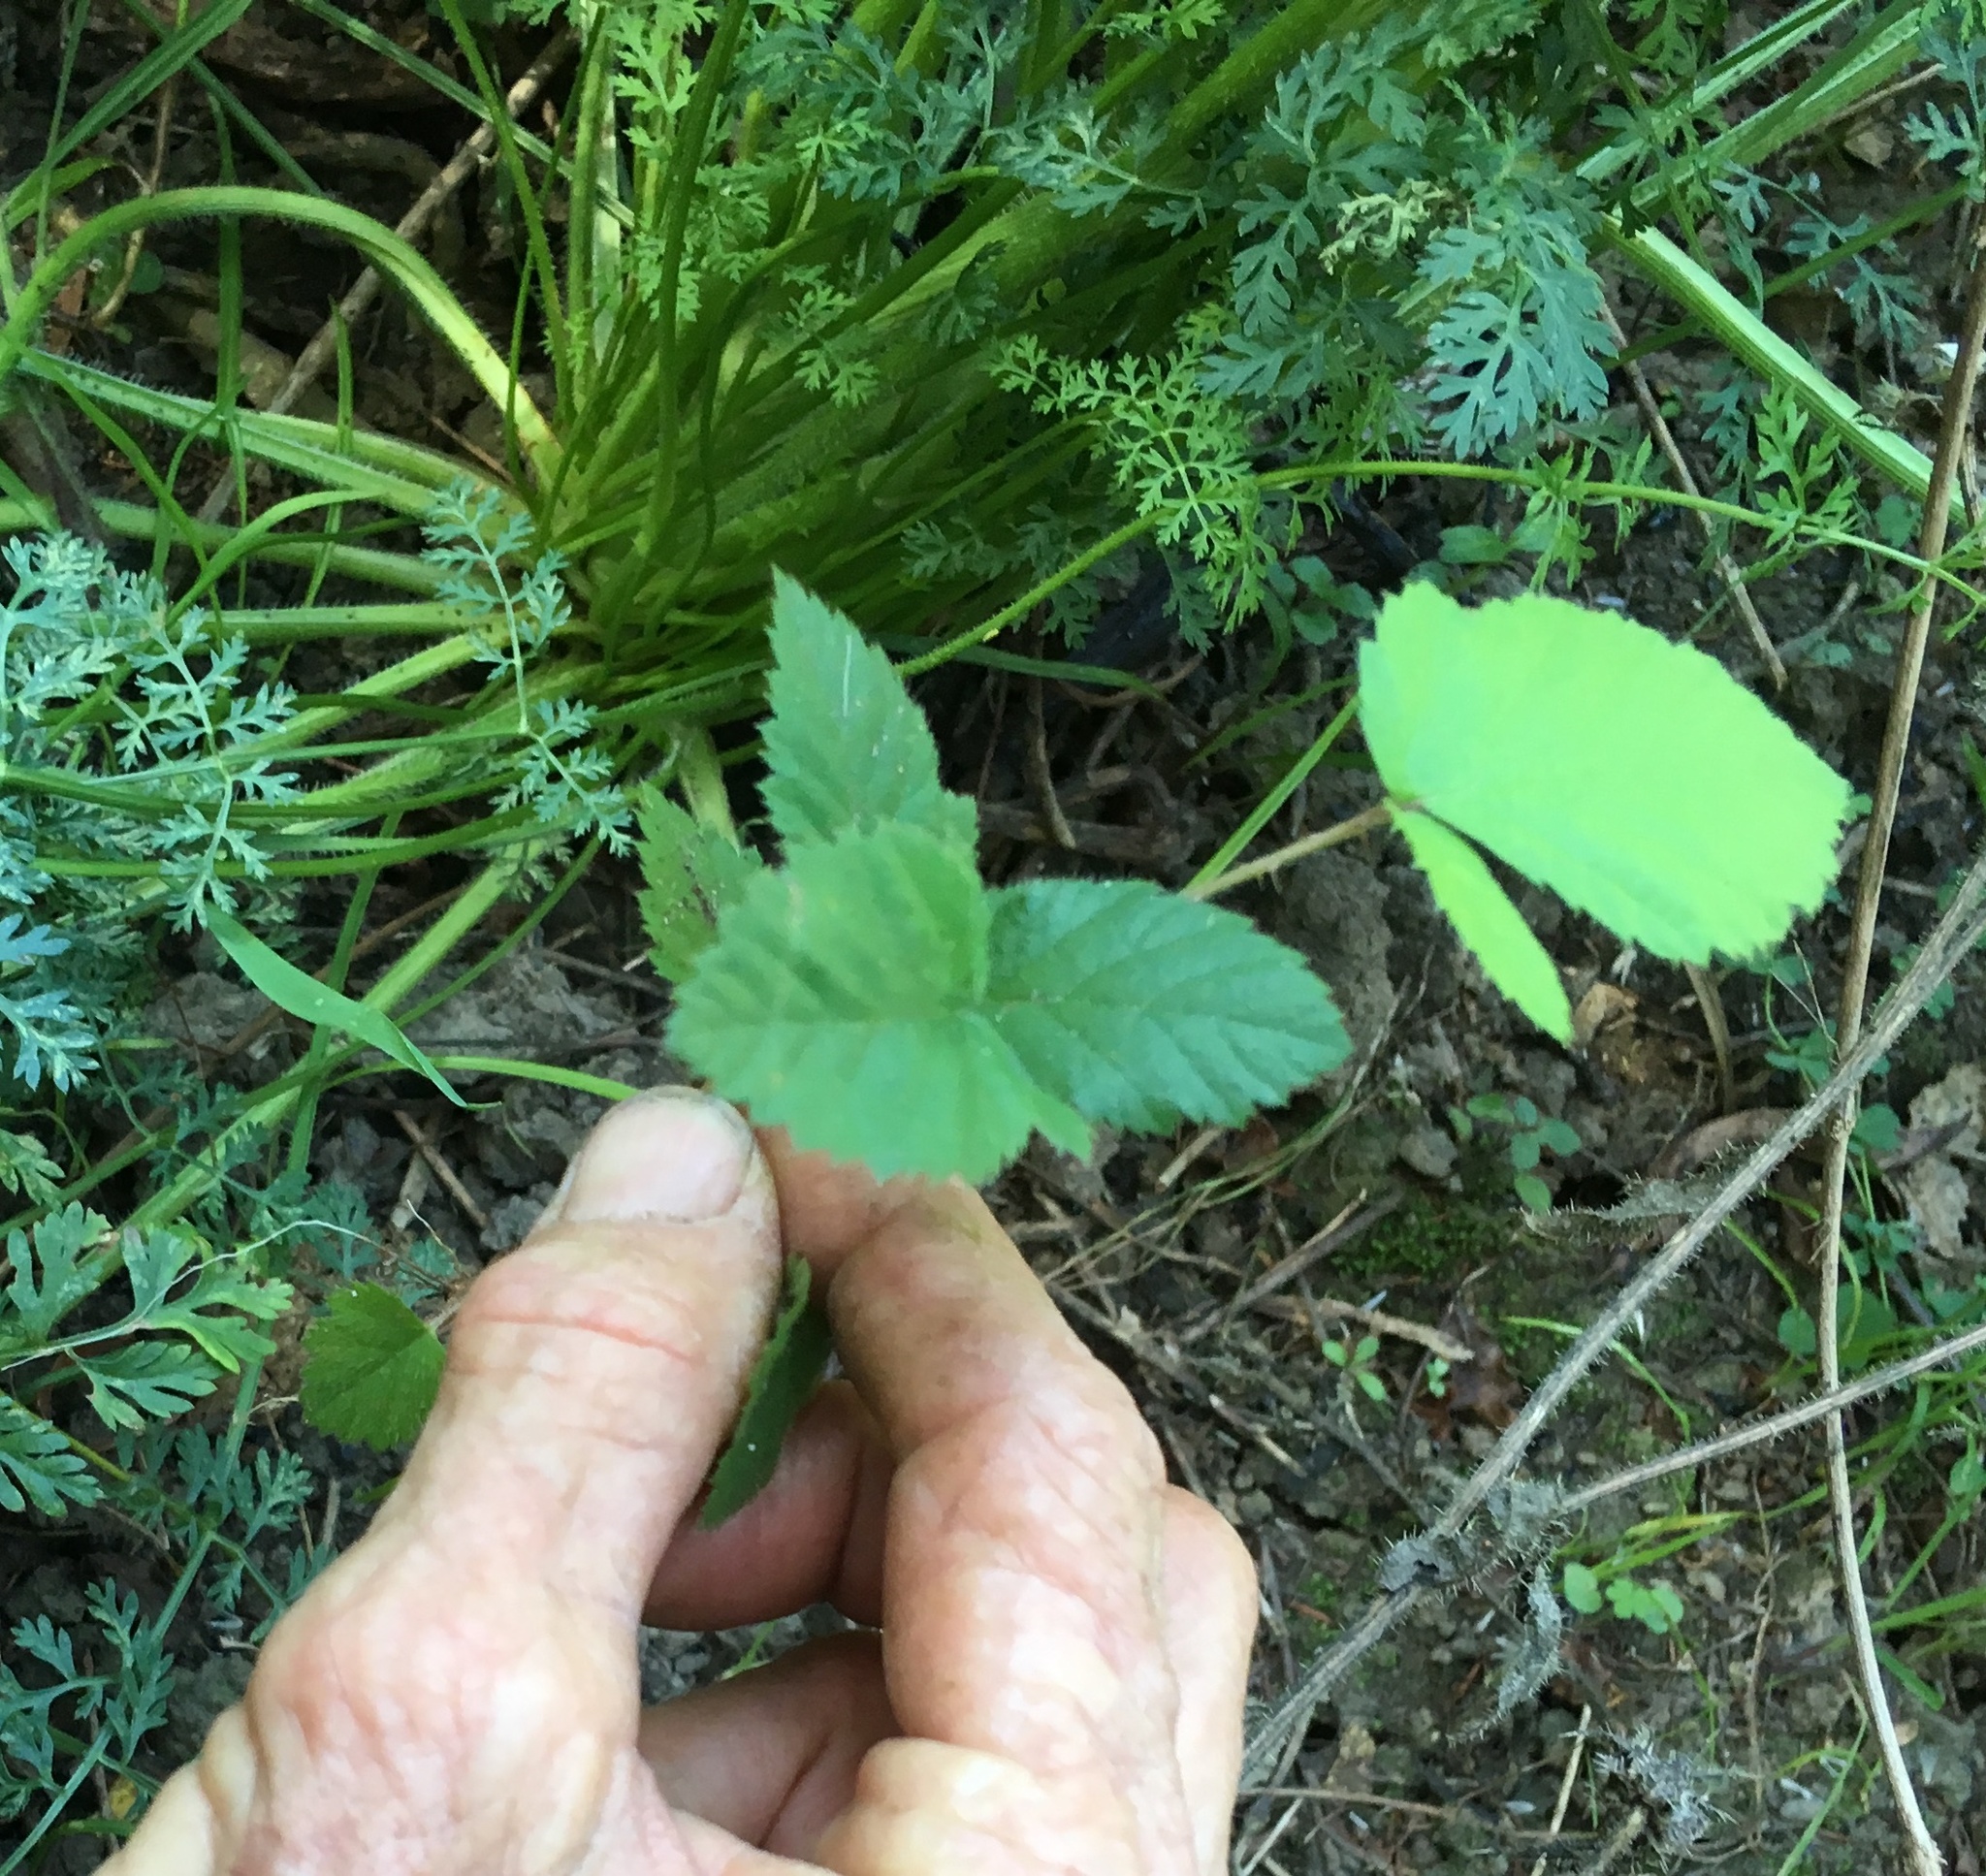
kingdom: Plantae
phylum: Tracheophyta
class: Magnoliopsida
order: Rosales
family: Rosaceae
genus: Rubus
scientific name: Rubus
